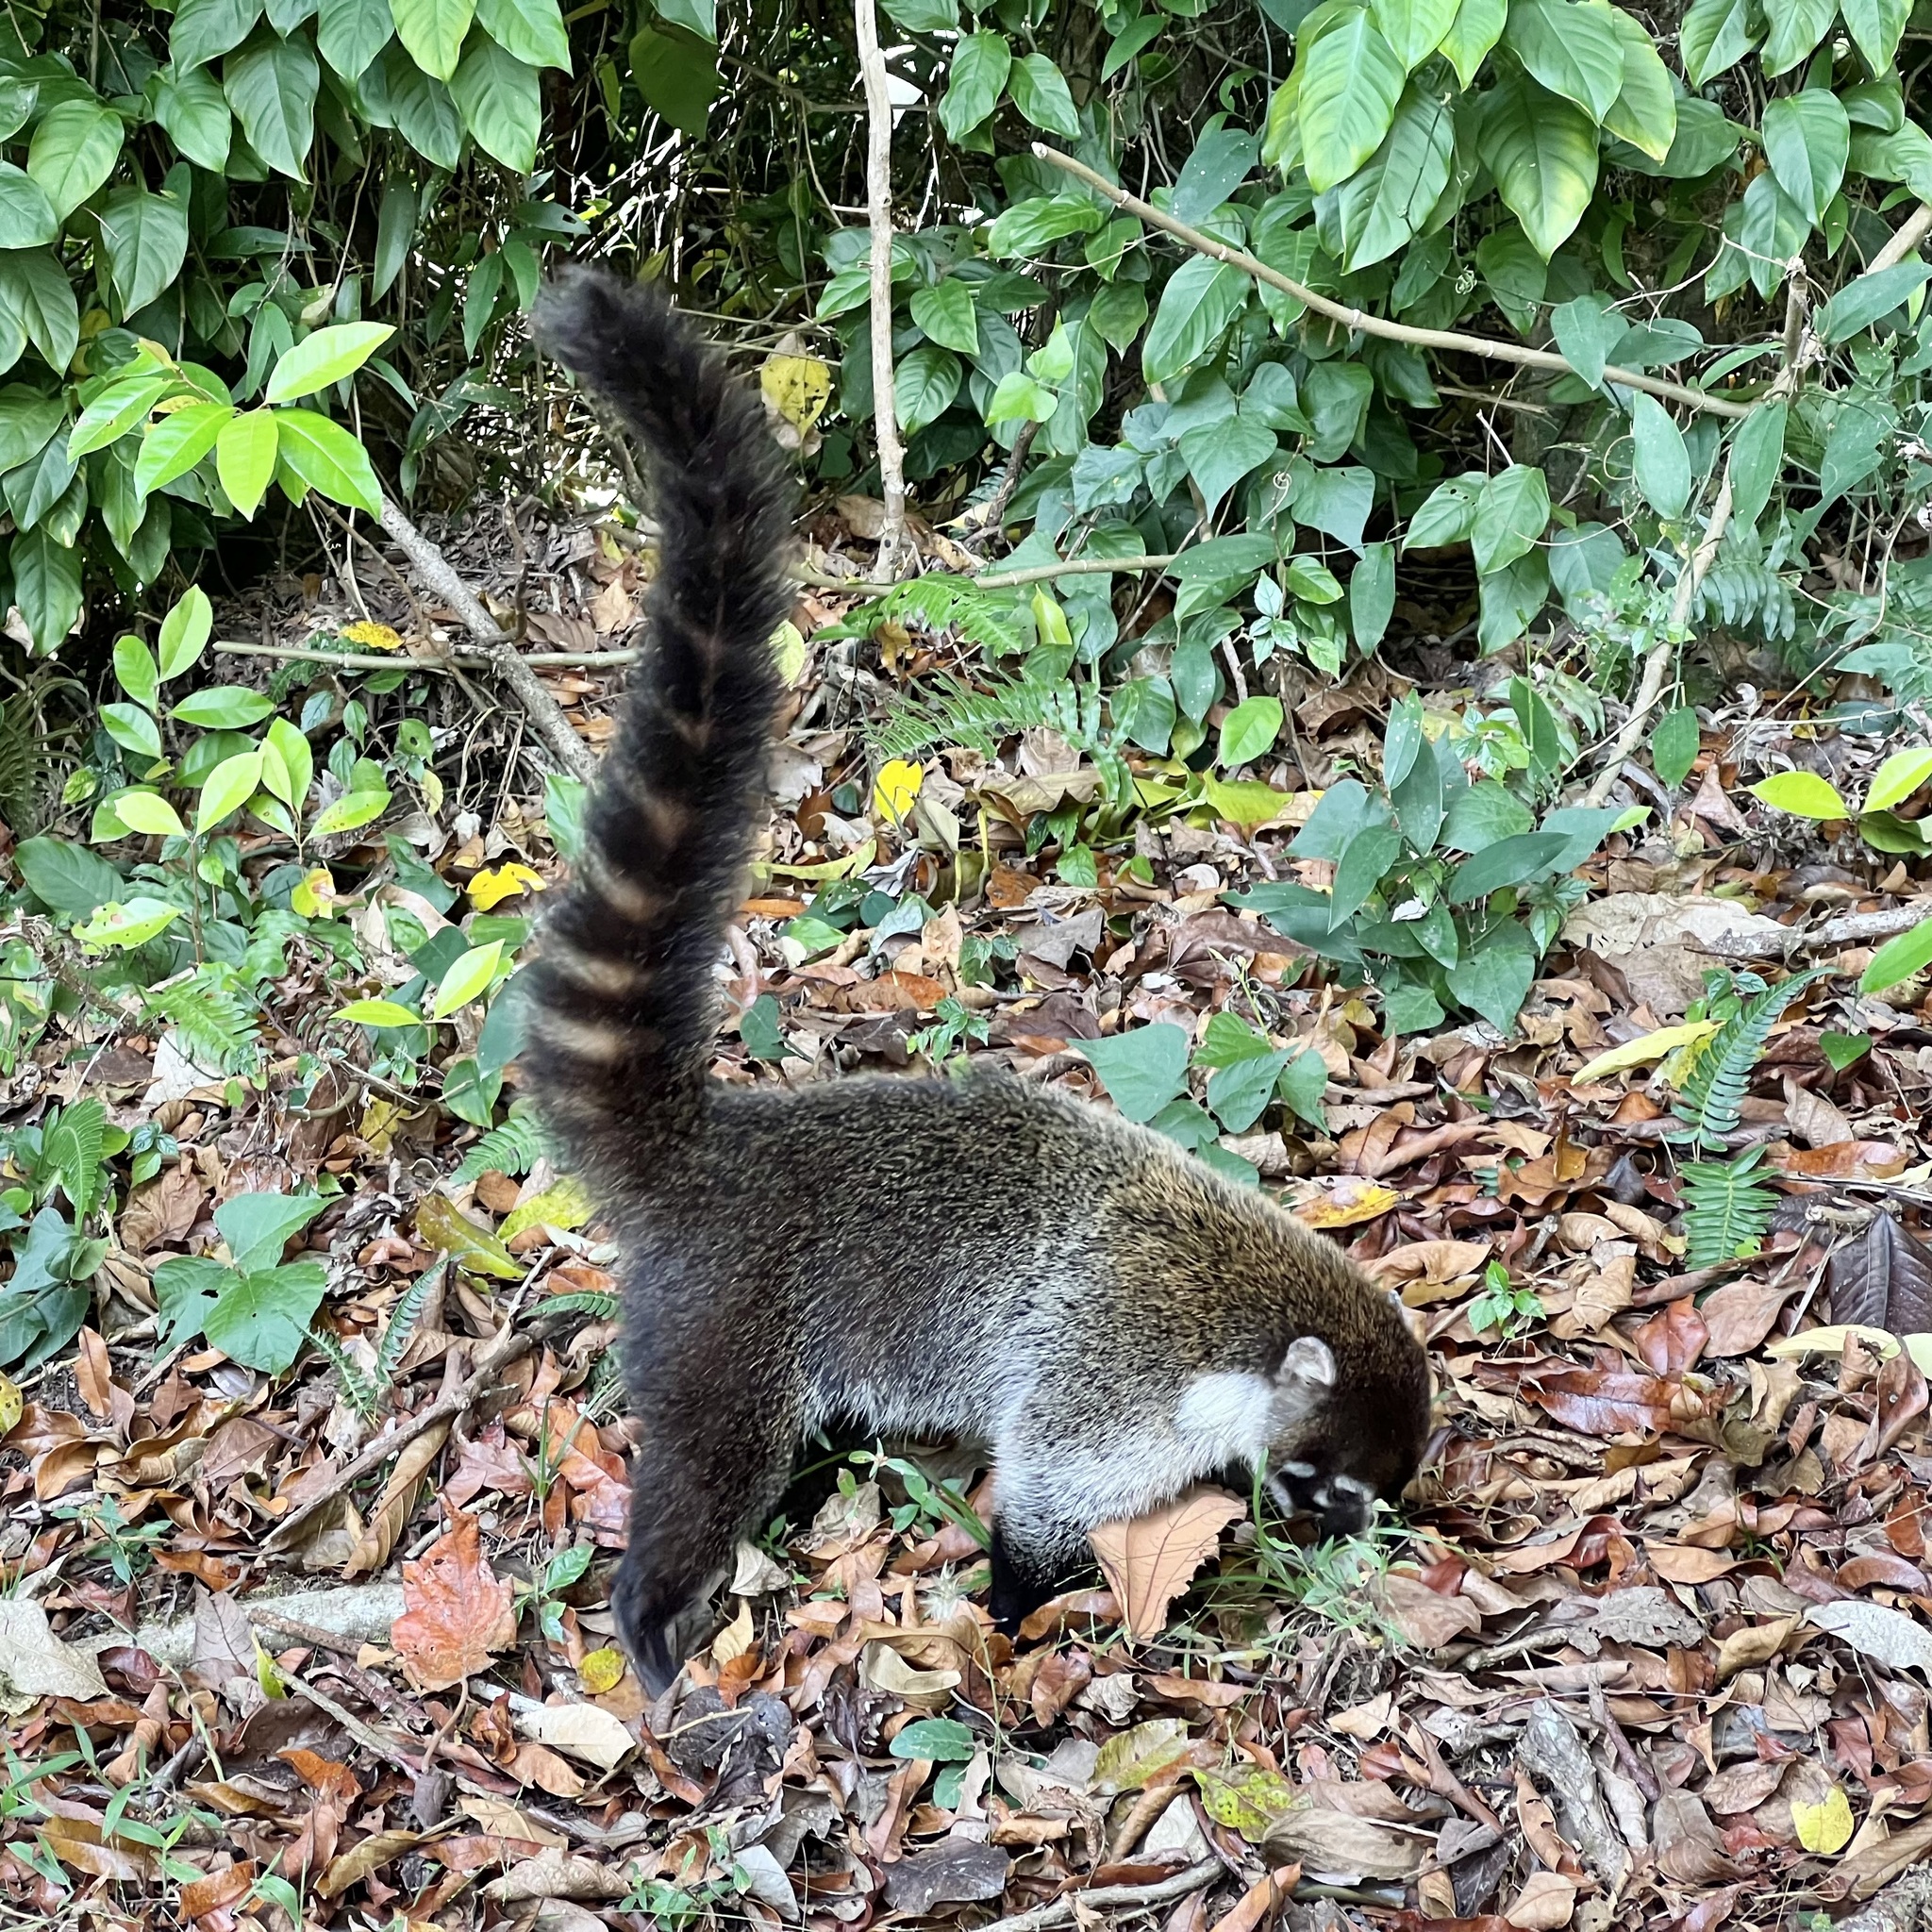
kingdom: Animalia
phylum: Chordata
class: Mammalia
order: Carnivora
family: Procyonidae
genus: Nasua
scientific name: Nasua narica
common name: White-nosed coati
